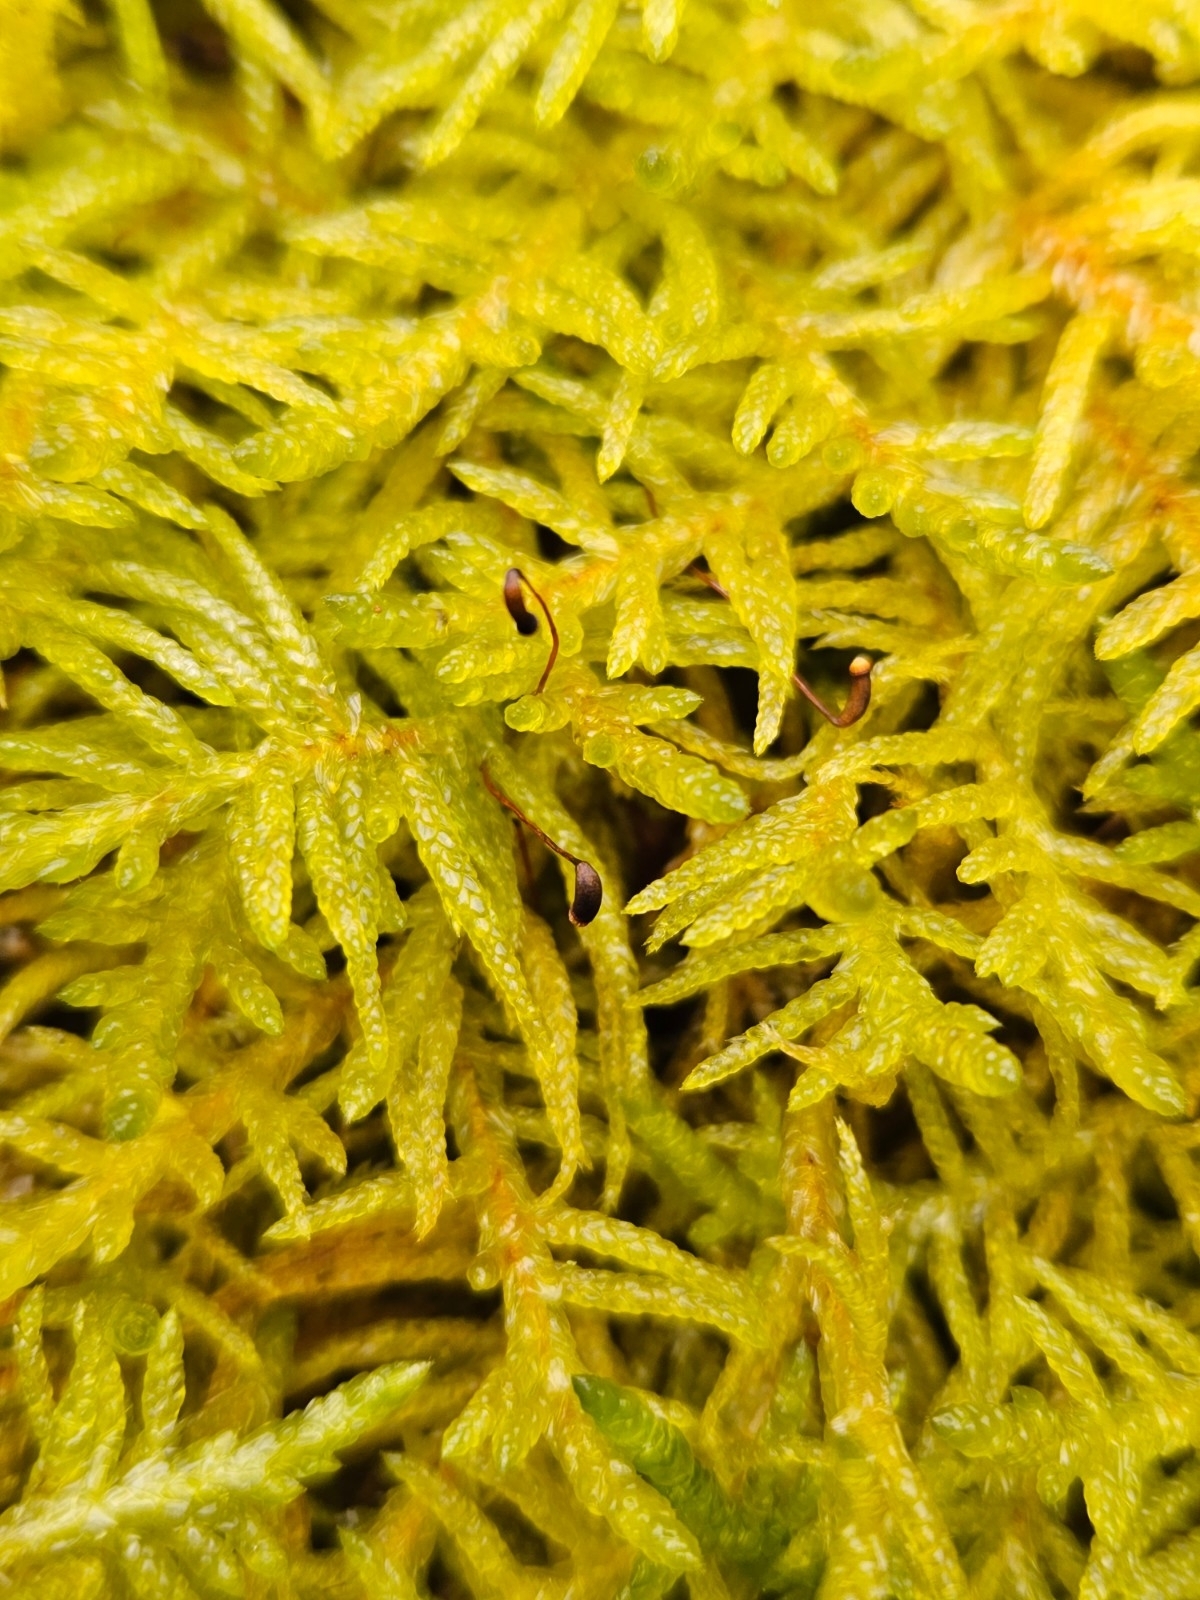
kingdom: Plantae
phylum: Bryophyta
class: Bryopsida
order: Hypnales
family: Brachytheciaceae
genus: Pseudoscleropodium
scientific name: Pseudoscleropodium purum
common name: Neat feather-moss
